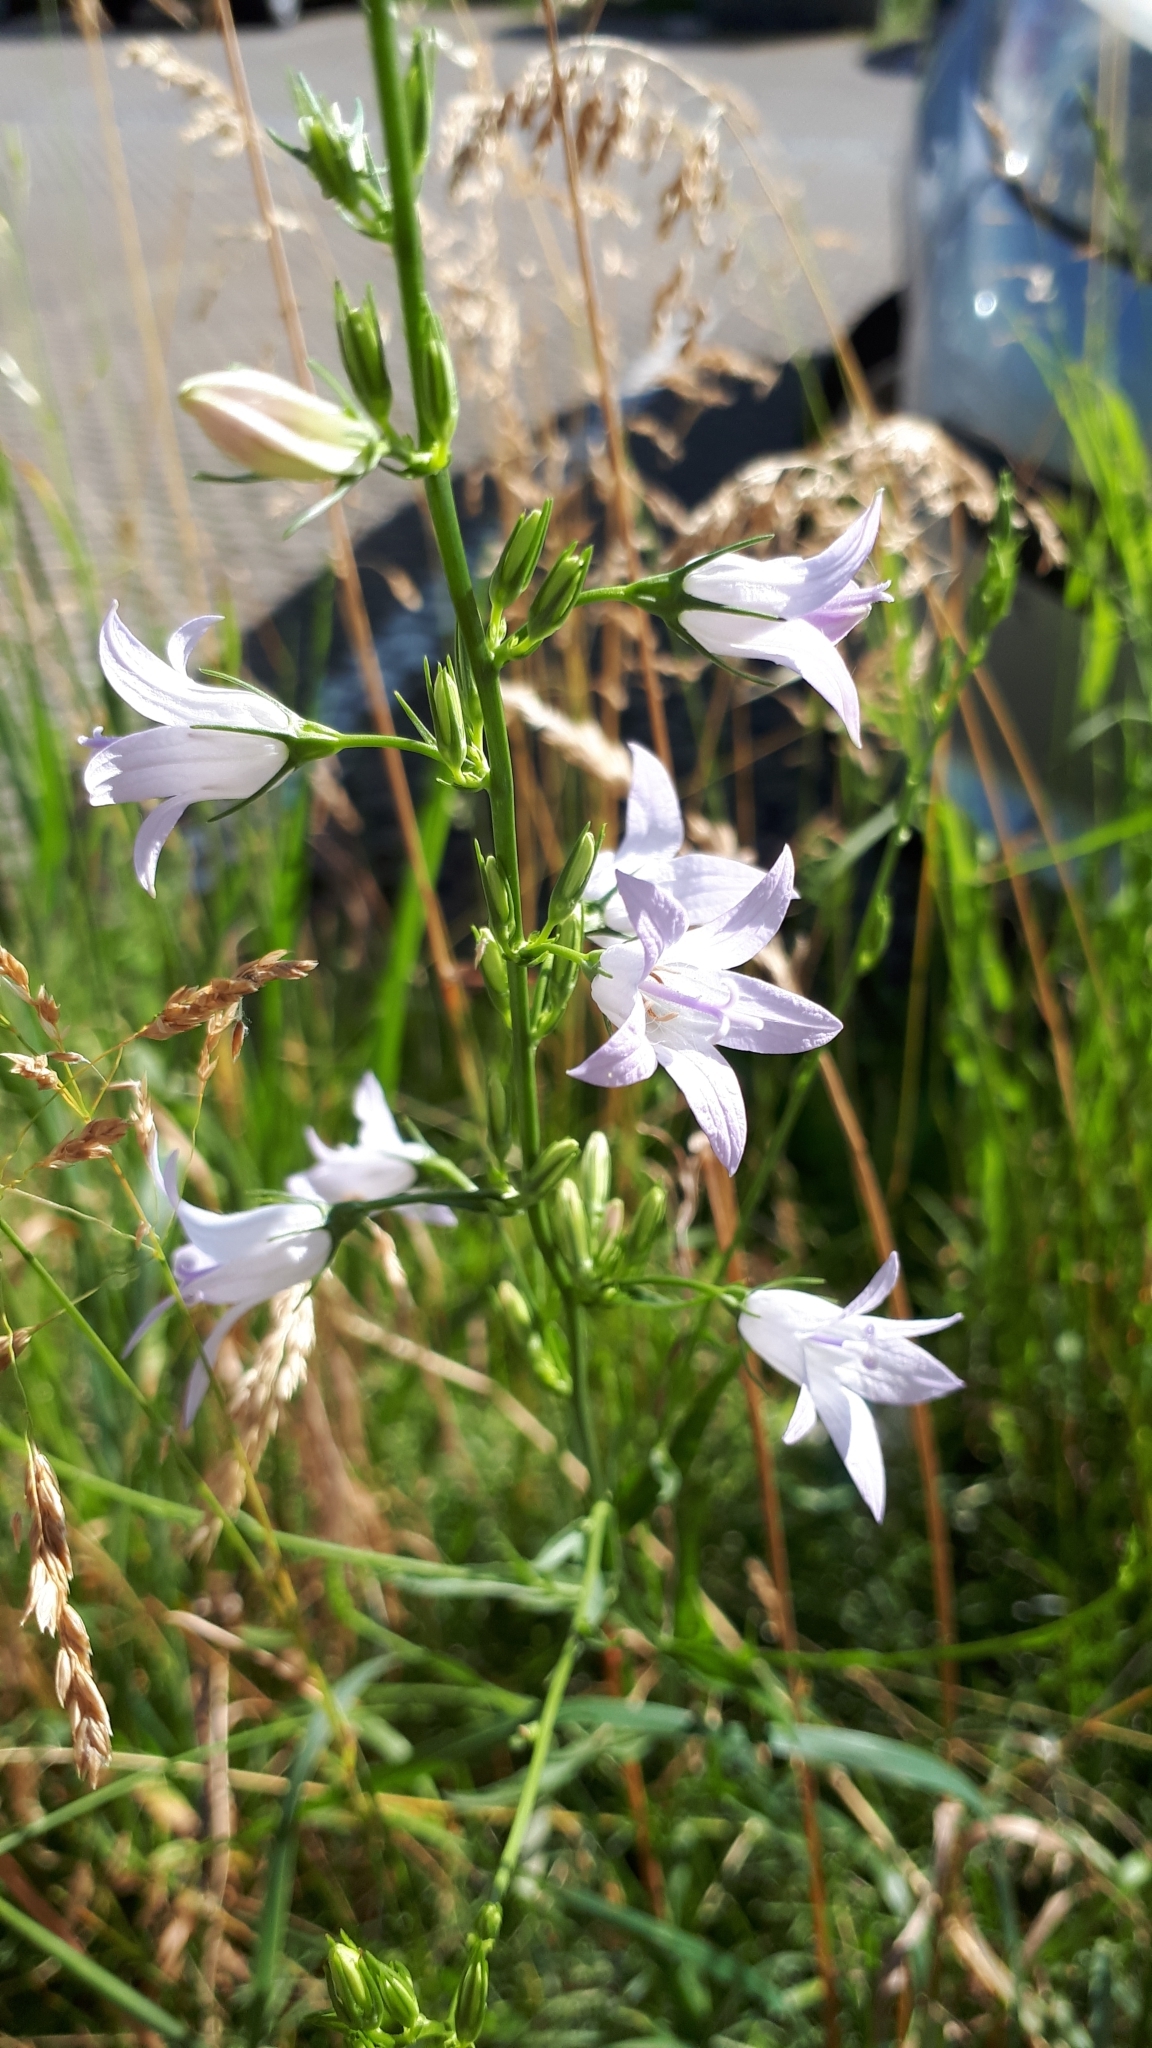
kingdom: Plantae
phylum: Tracheophyta
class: Magnoliopsida
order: Asterales
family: Campanulaceae
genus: Campanula
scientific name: Campanula rapunculus
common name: Rampion bellflower
